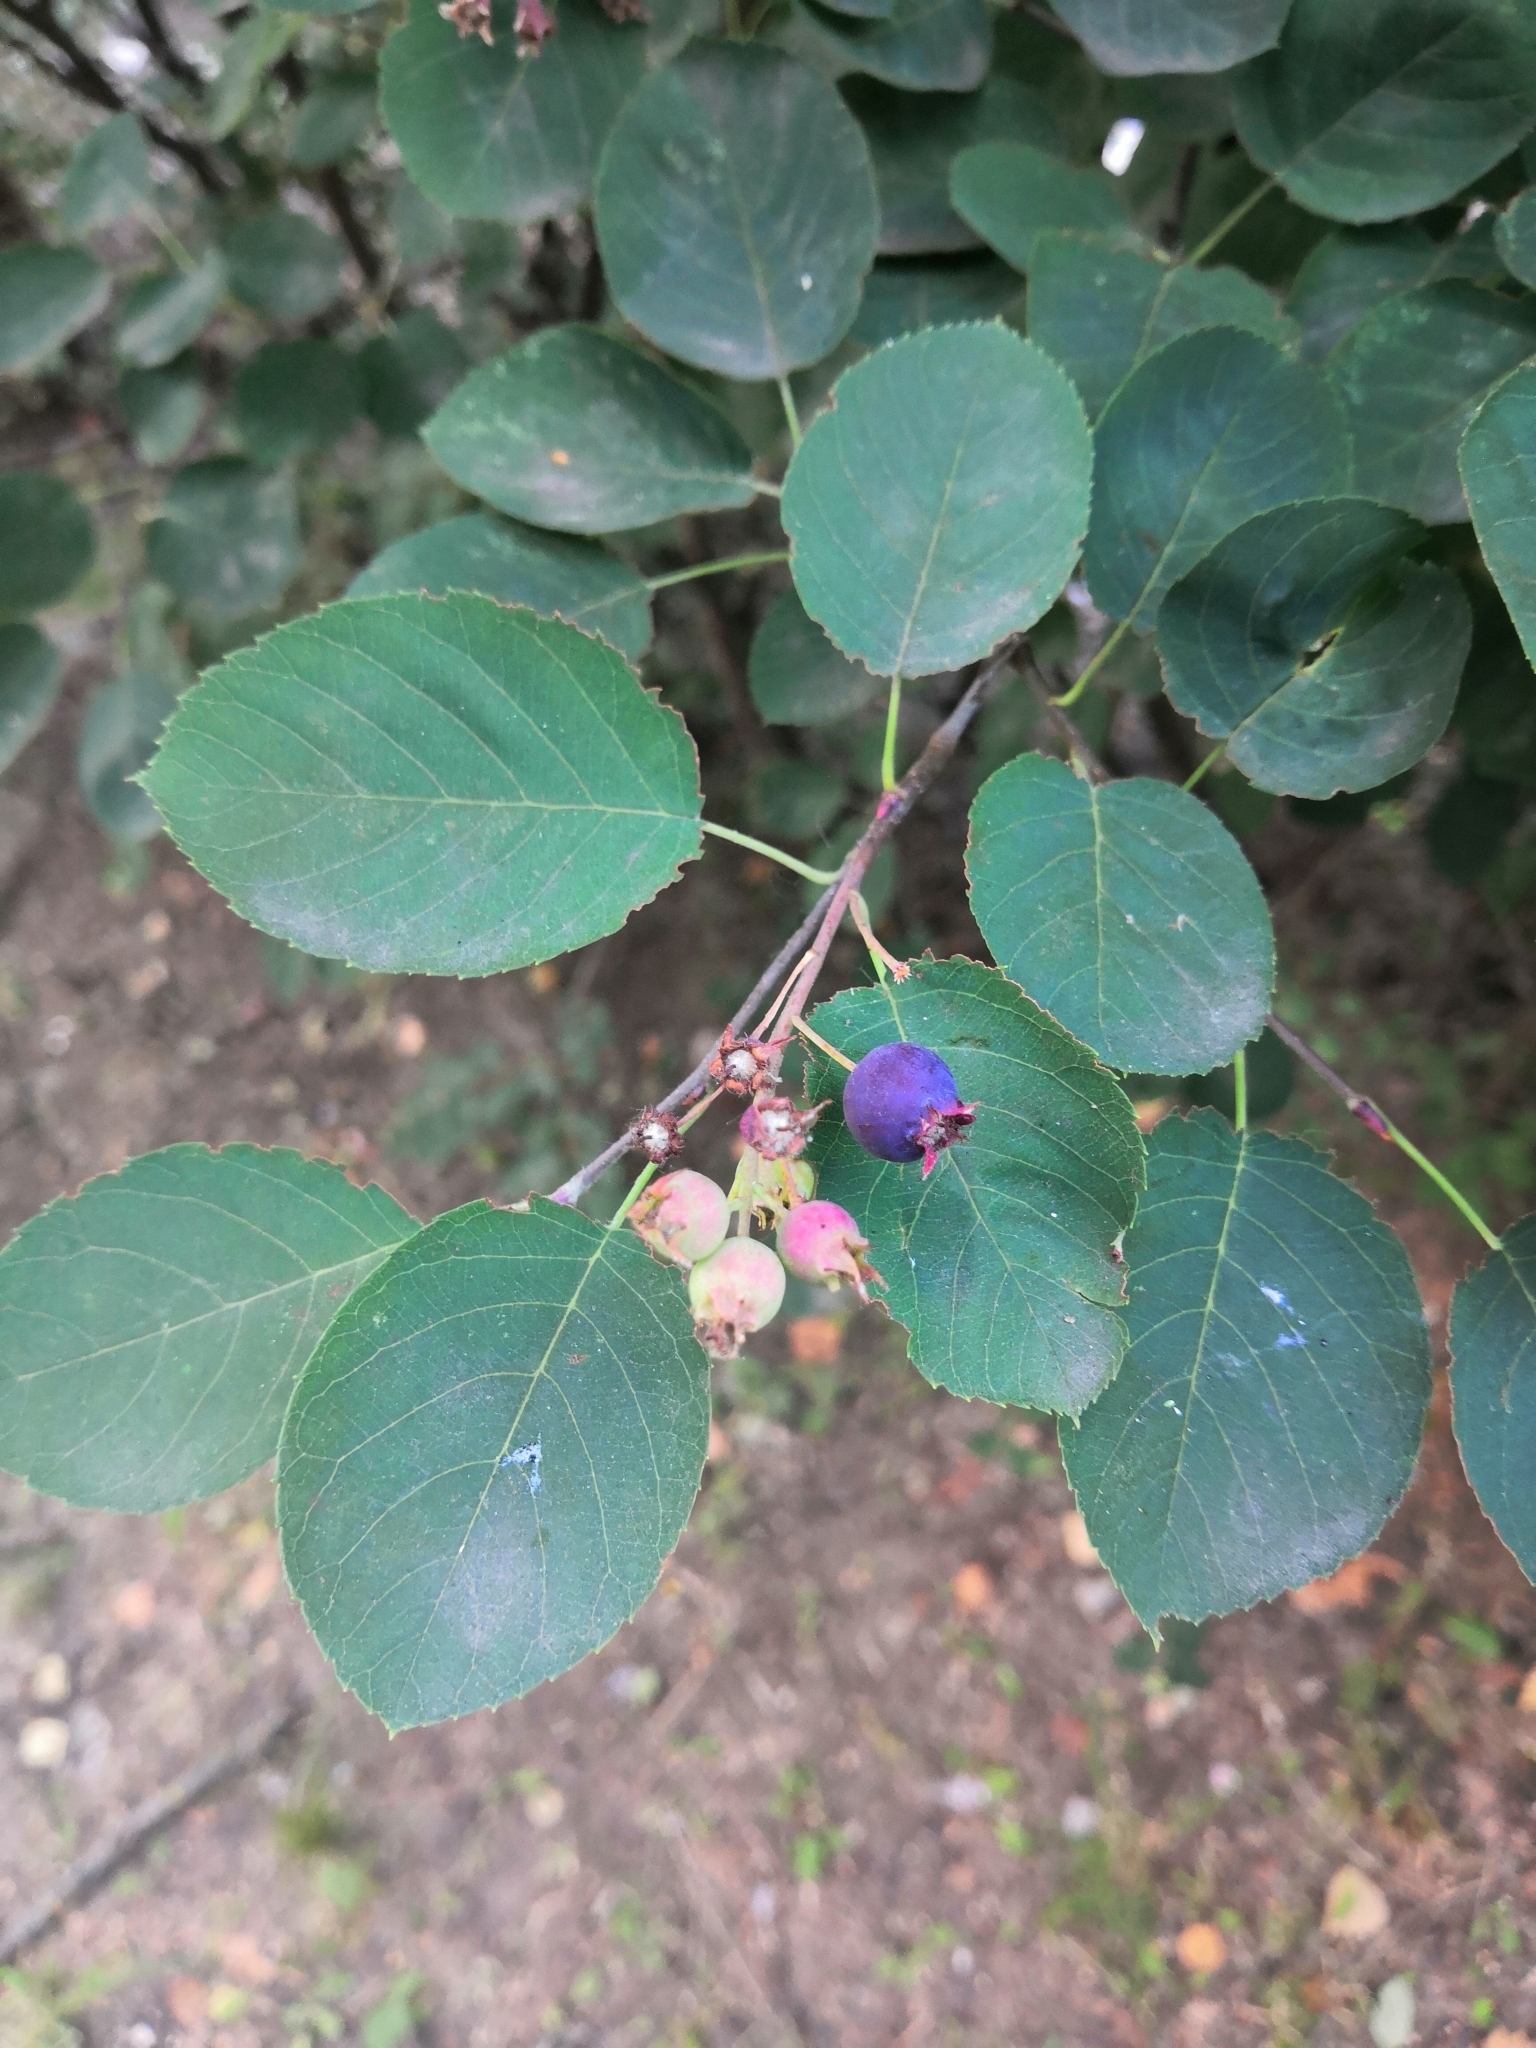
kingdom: Plantae
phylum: Tracheophyta
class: Magnoliopsida
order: Rosales
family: Rosaceae
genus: Amelanchier
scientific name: Amelanchier
